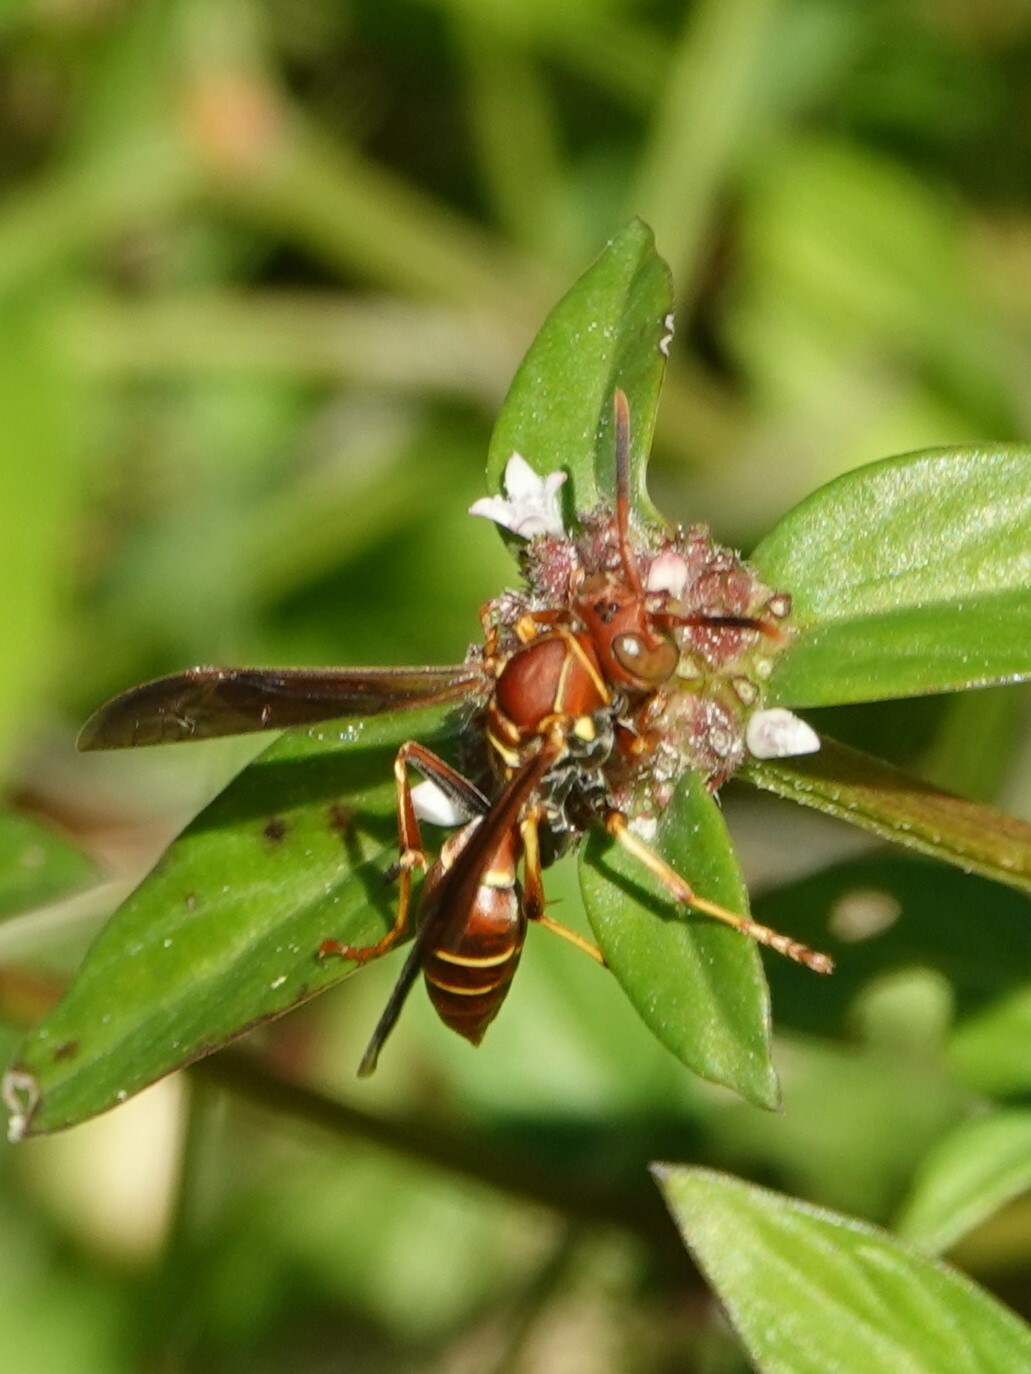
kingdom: Animalia
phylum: Arthropoda
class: Insecta
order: Hymenoptera
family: Eumenidae
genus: Polistes
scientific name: Polistes dorsalis
